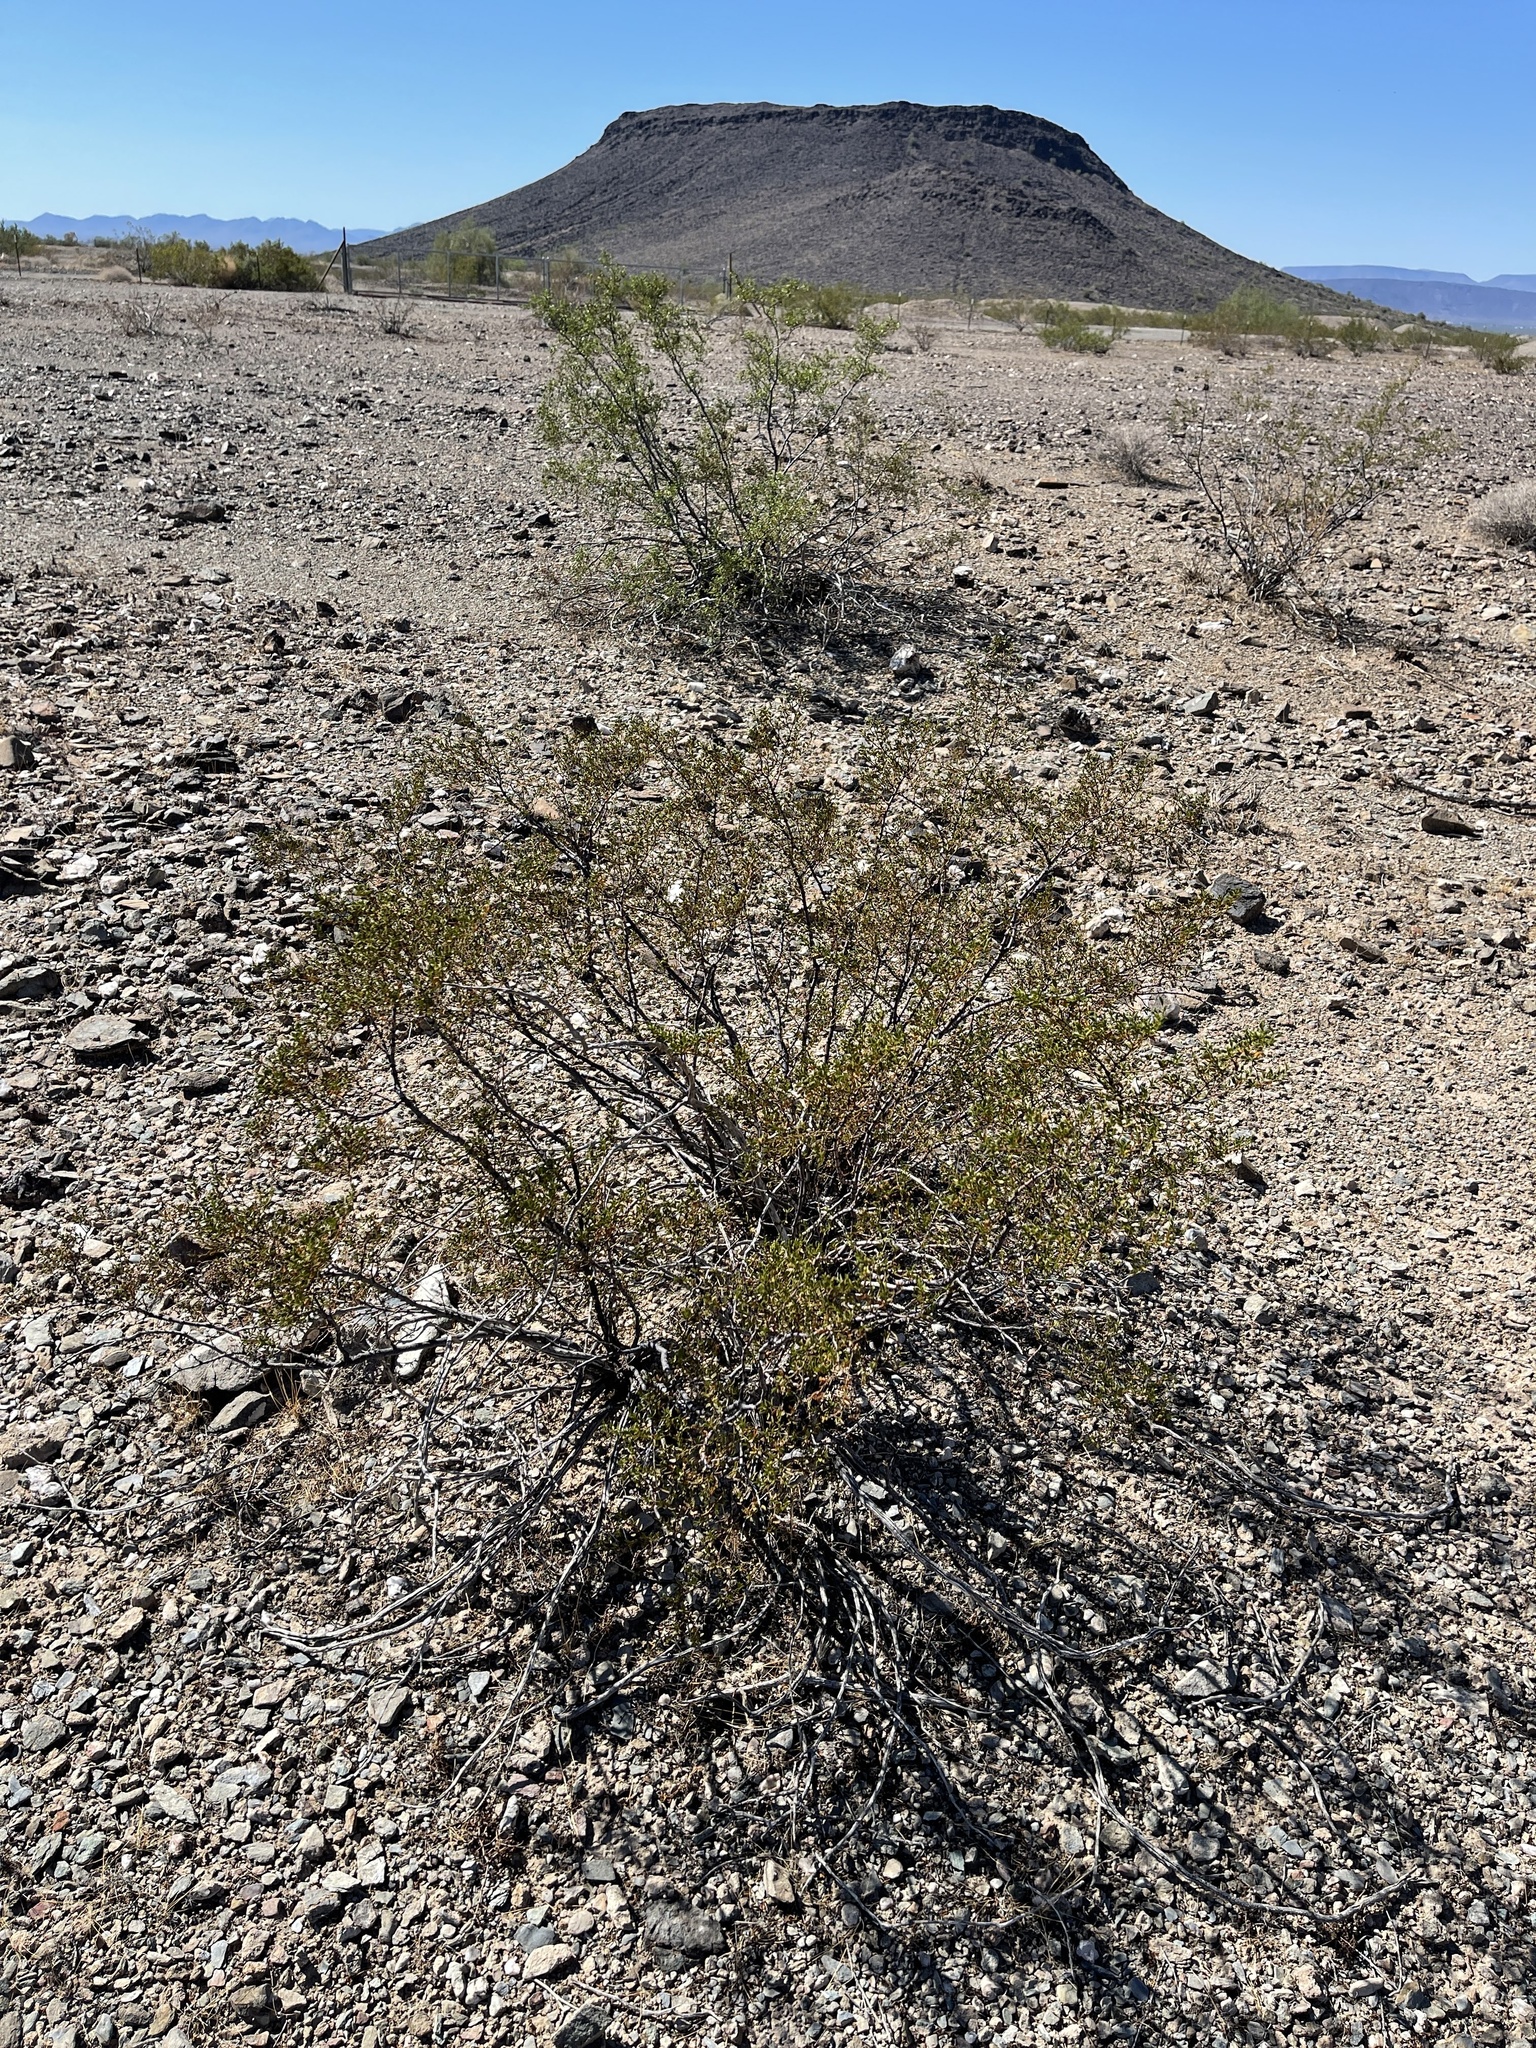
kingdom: Plantae
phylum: Tracheophyta
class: Magnoliopsida
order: Zygophyllales
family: Zygophyllaceae
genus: Larrea
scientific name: Larrea tridentata
